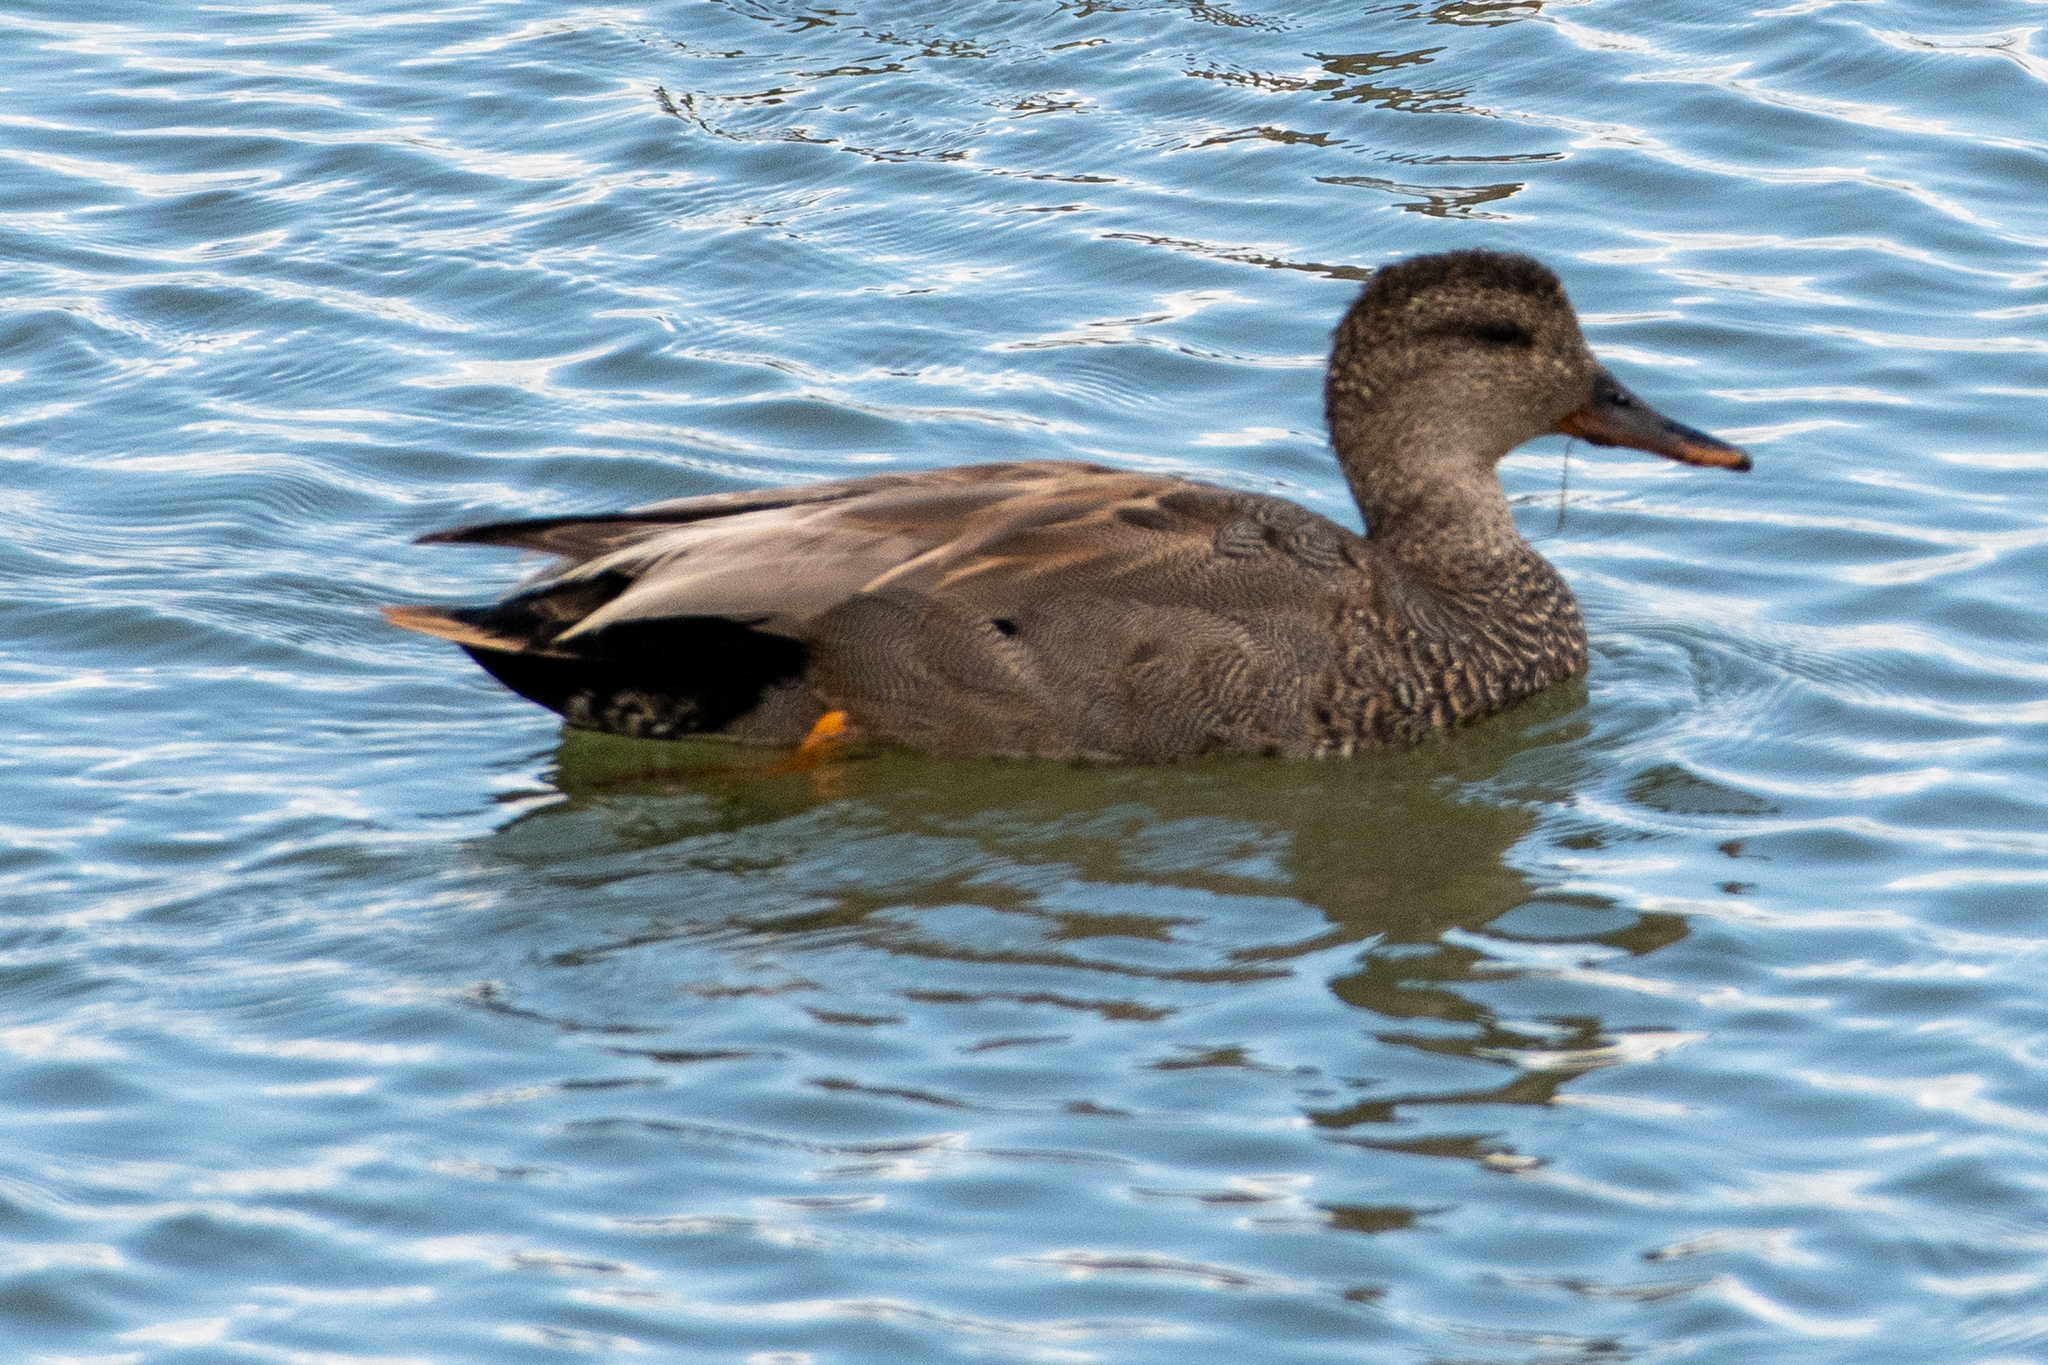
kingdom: Animalia
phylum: Chordata
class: Aves
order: Anseriformes
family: Anatidae
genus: Mareca
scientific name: Mareca strepera
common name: Gadwall
